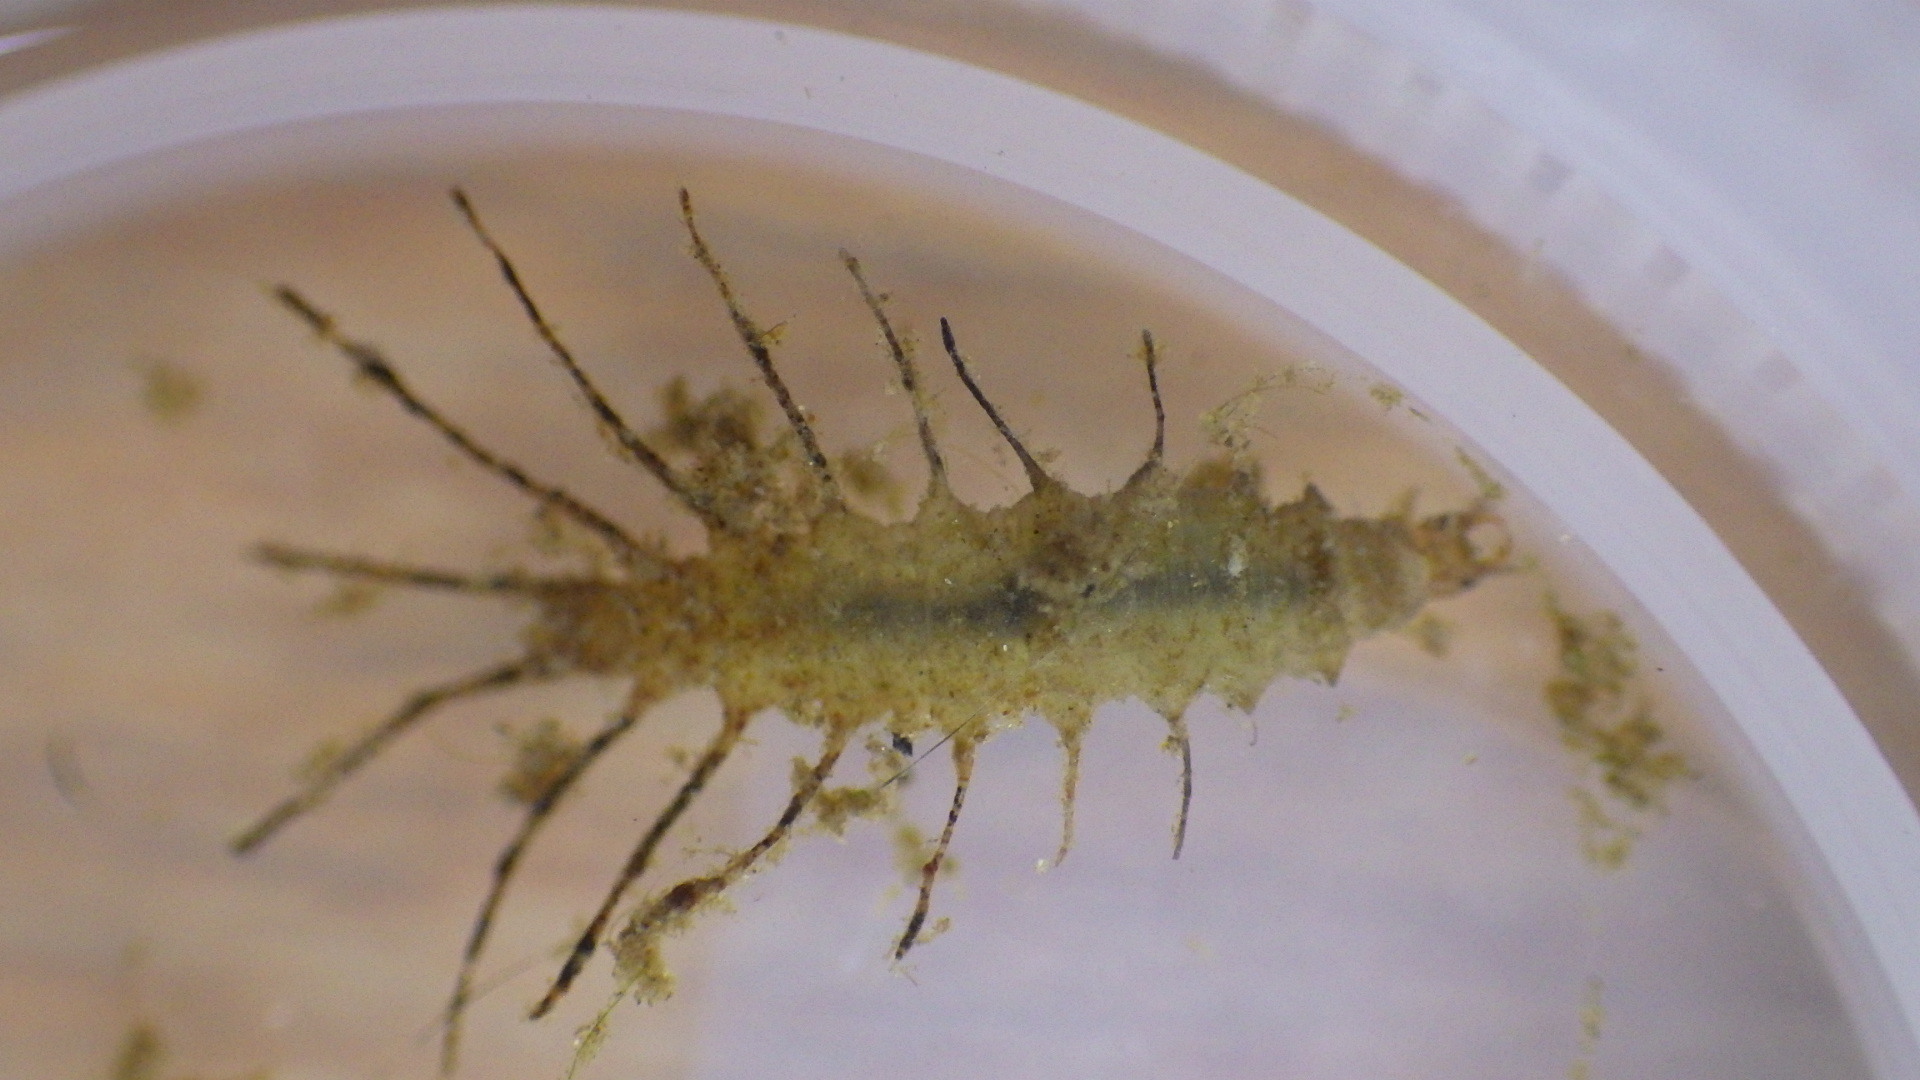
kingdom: Animalia
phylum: Arthropoda
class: Insecta
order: Coleoptera
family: Hydrophilidae
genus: Berosus
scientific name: Berosus
